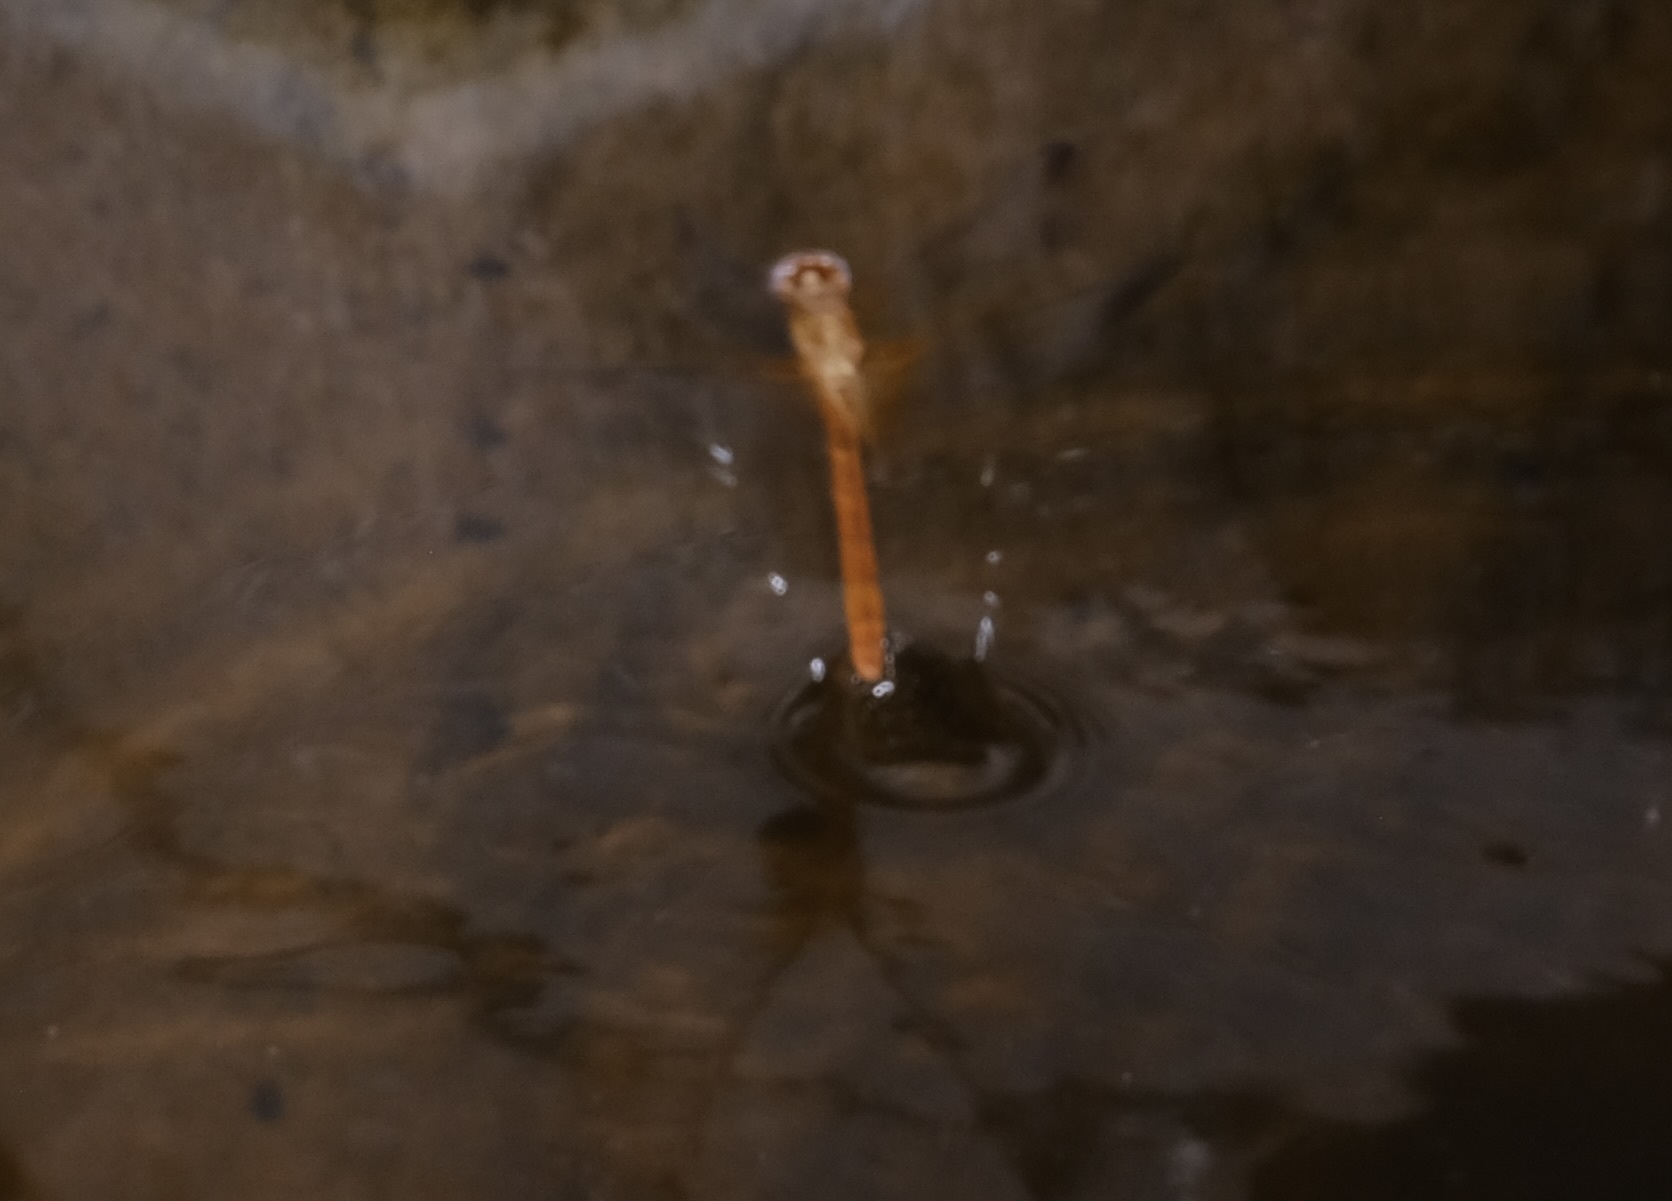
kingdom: Animalia
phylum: Arthropoda
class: Insecta
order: Odonata
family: Libellulidae
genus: Dythemis
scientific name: Dythemis maya
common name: Mayan setwing
